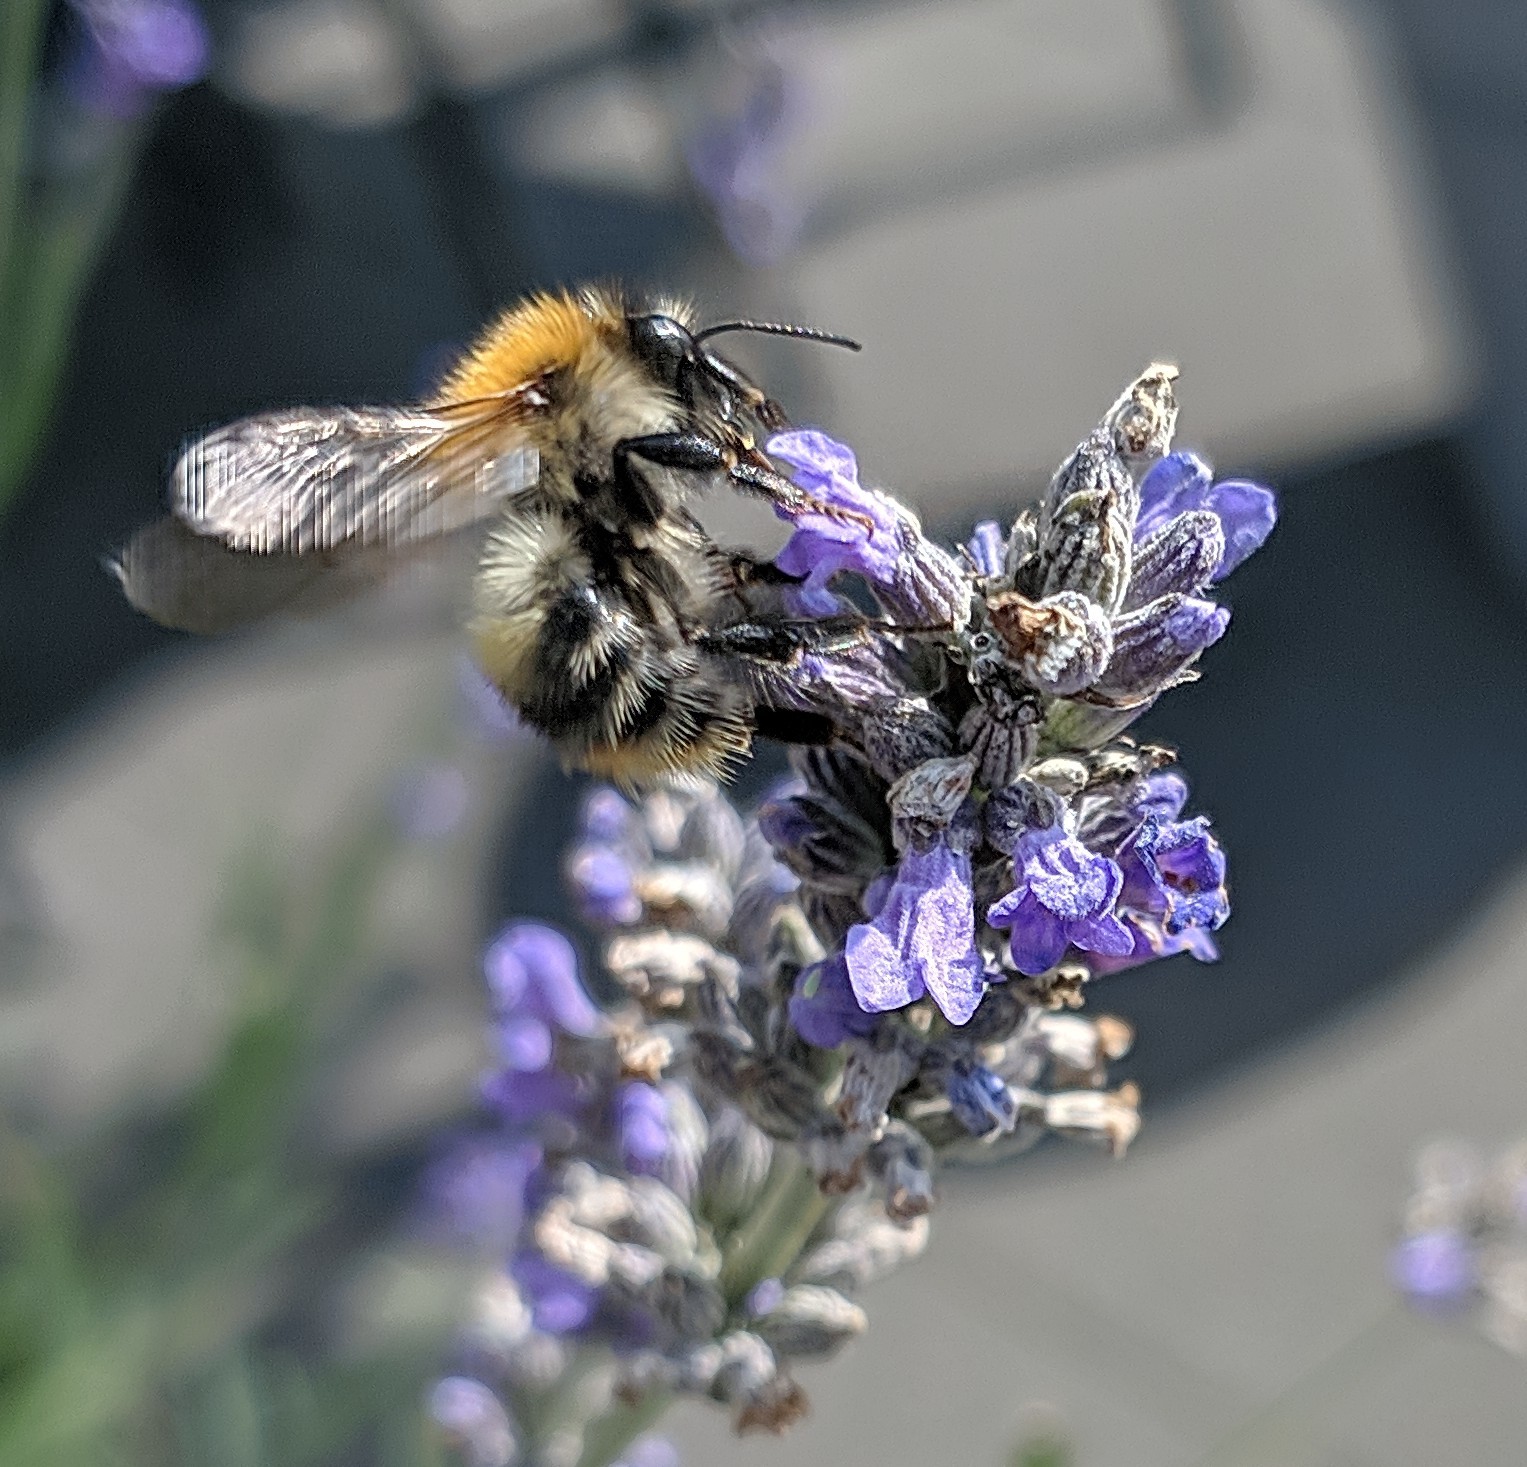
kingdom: Animalia
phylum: Arthropoda
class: Insecta
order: Hymenoptera
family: Apidae
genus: Bombus
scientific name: Bombus pascuorum
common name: Common carder bee
